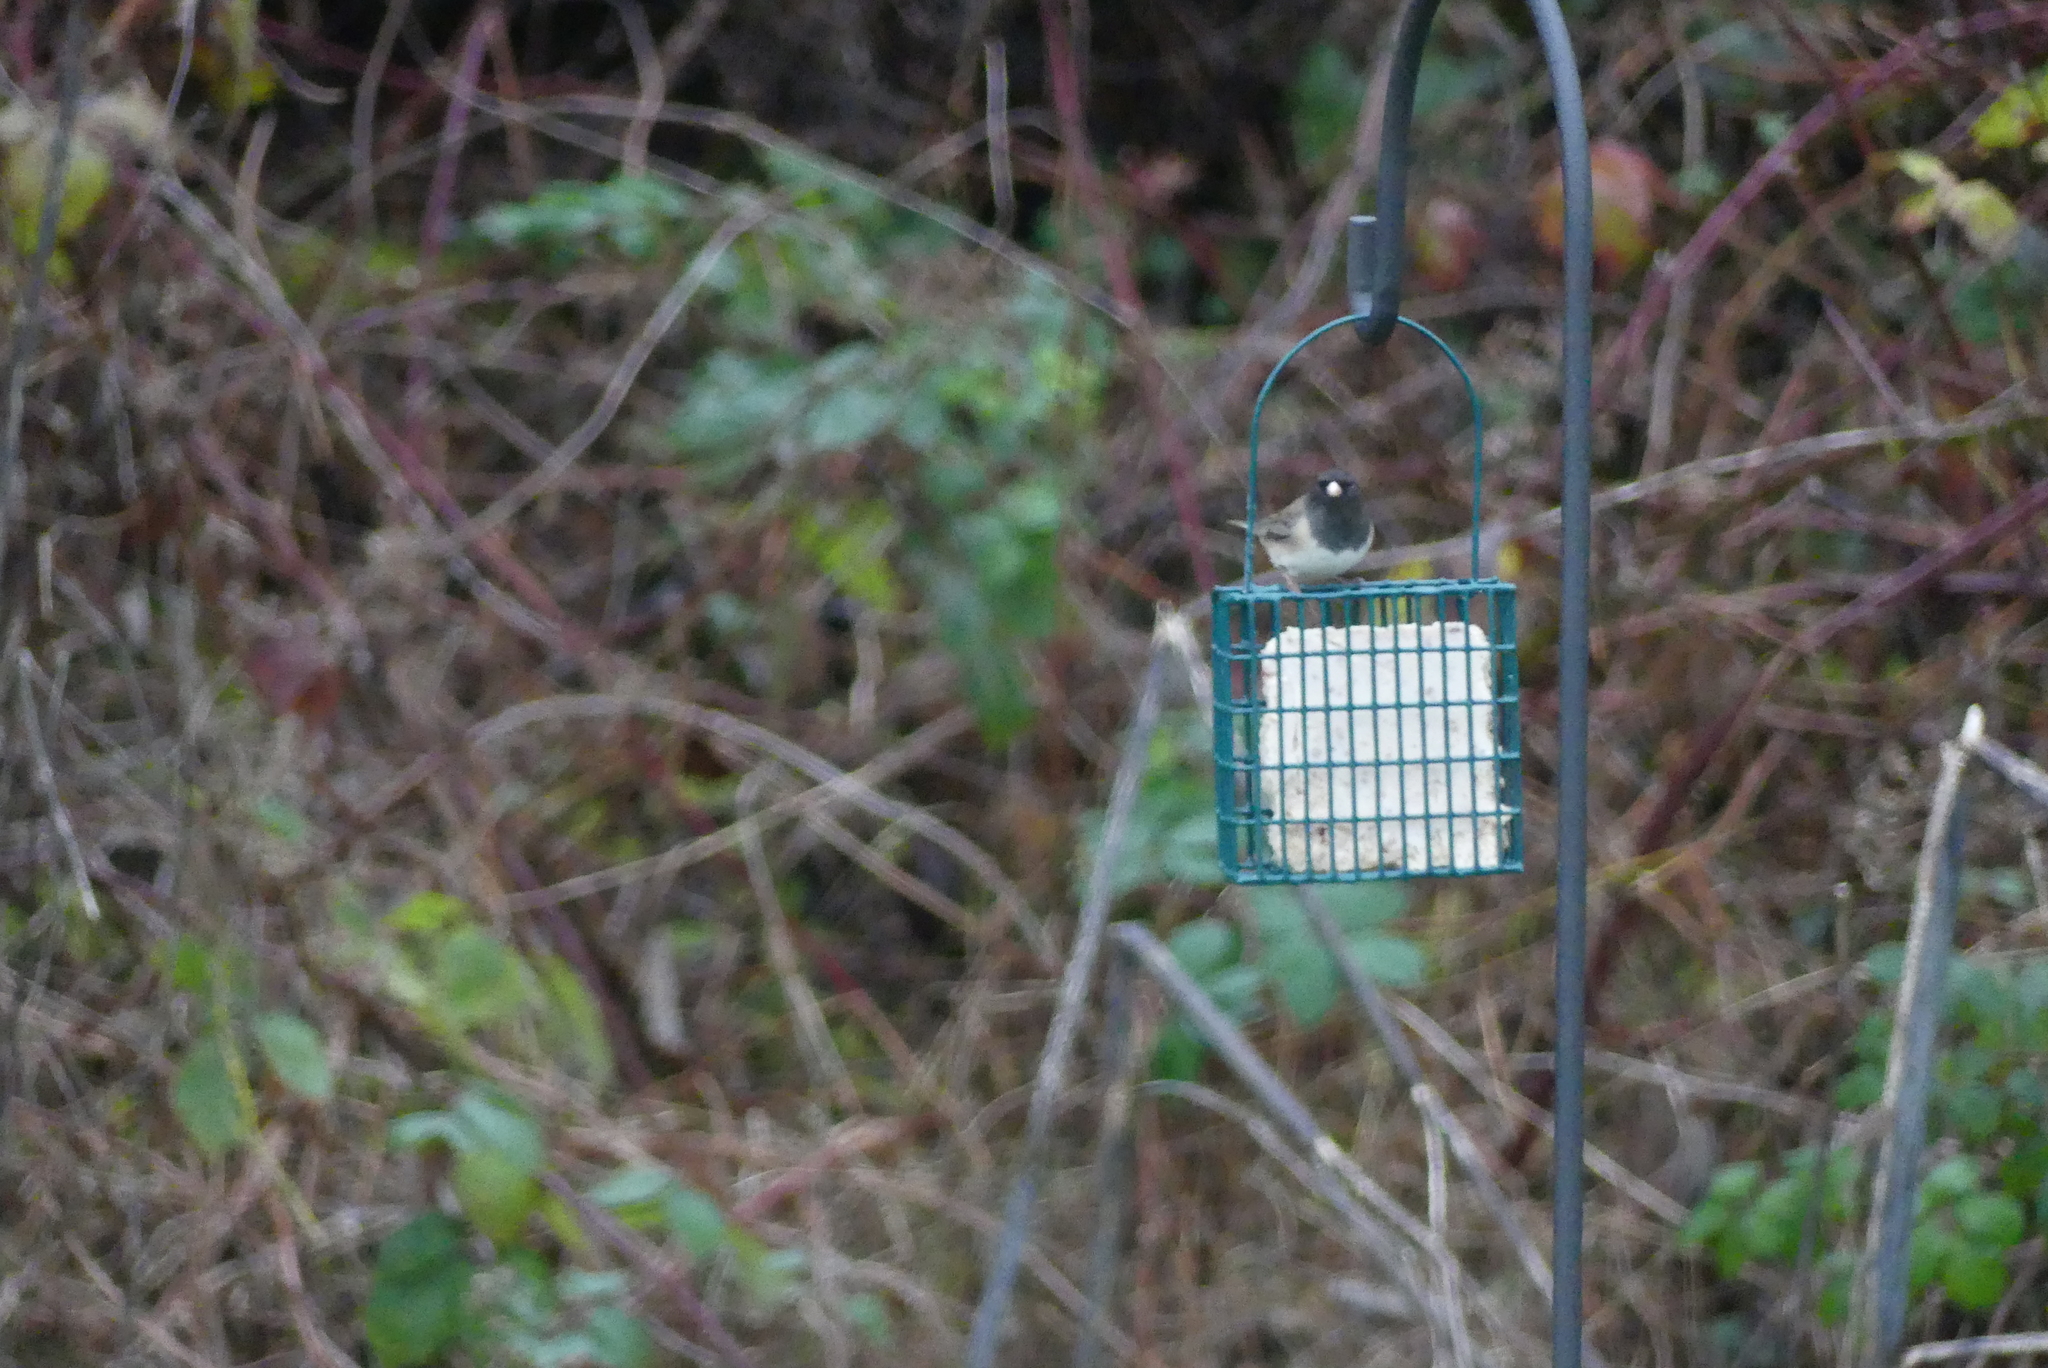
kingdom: Animalia
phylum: Chordata
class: Aves
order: Passeriformes
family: Passerellidae
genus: Junco
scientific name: Junco hyemalis
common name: Dark-eyed junco
